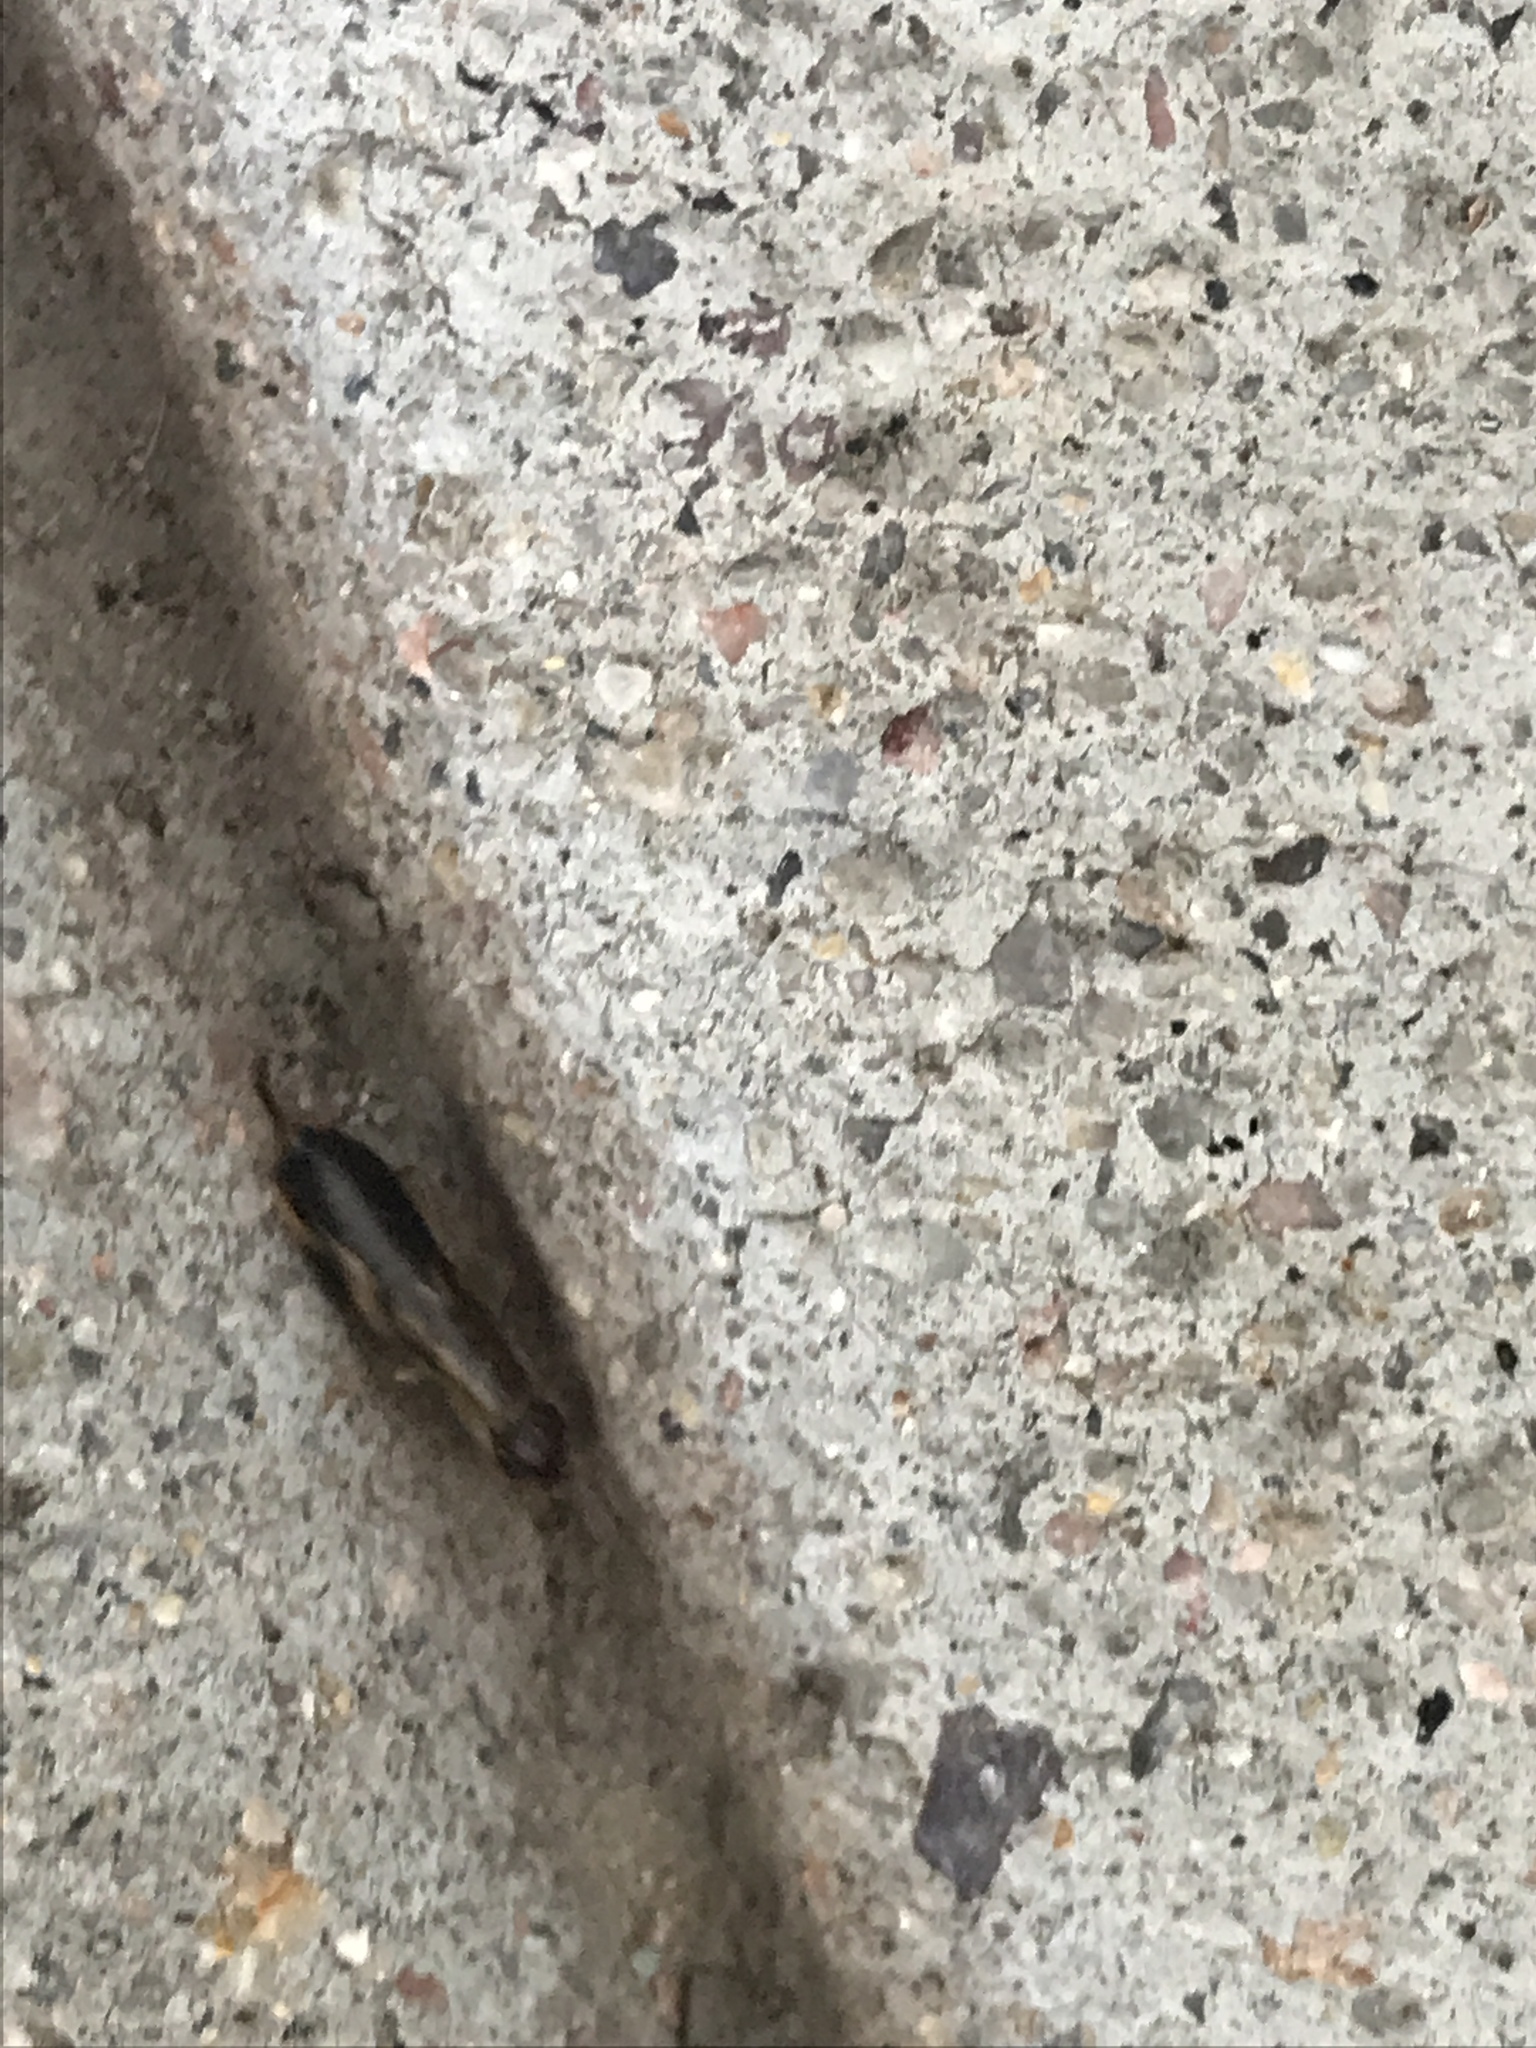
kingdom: Animalia
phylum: Arthropoda
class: Insecta
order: Dermaptera
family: Forficulidae
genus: Forficula
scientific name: Forficula
